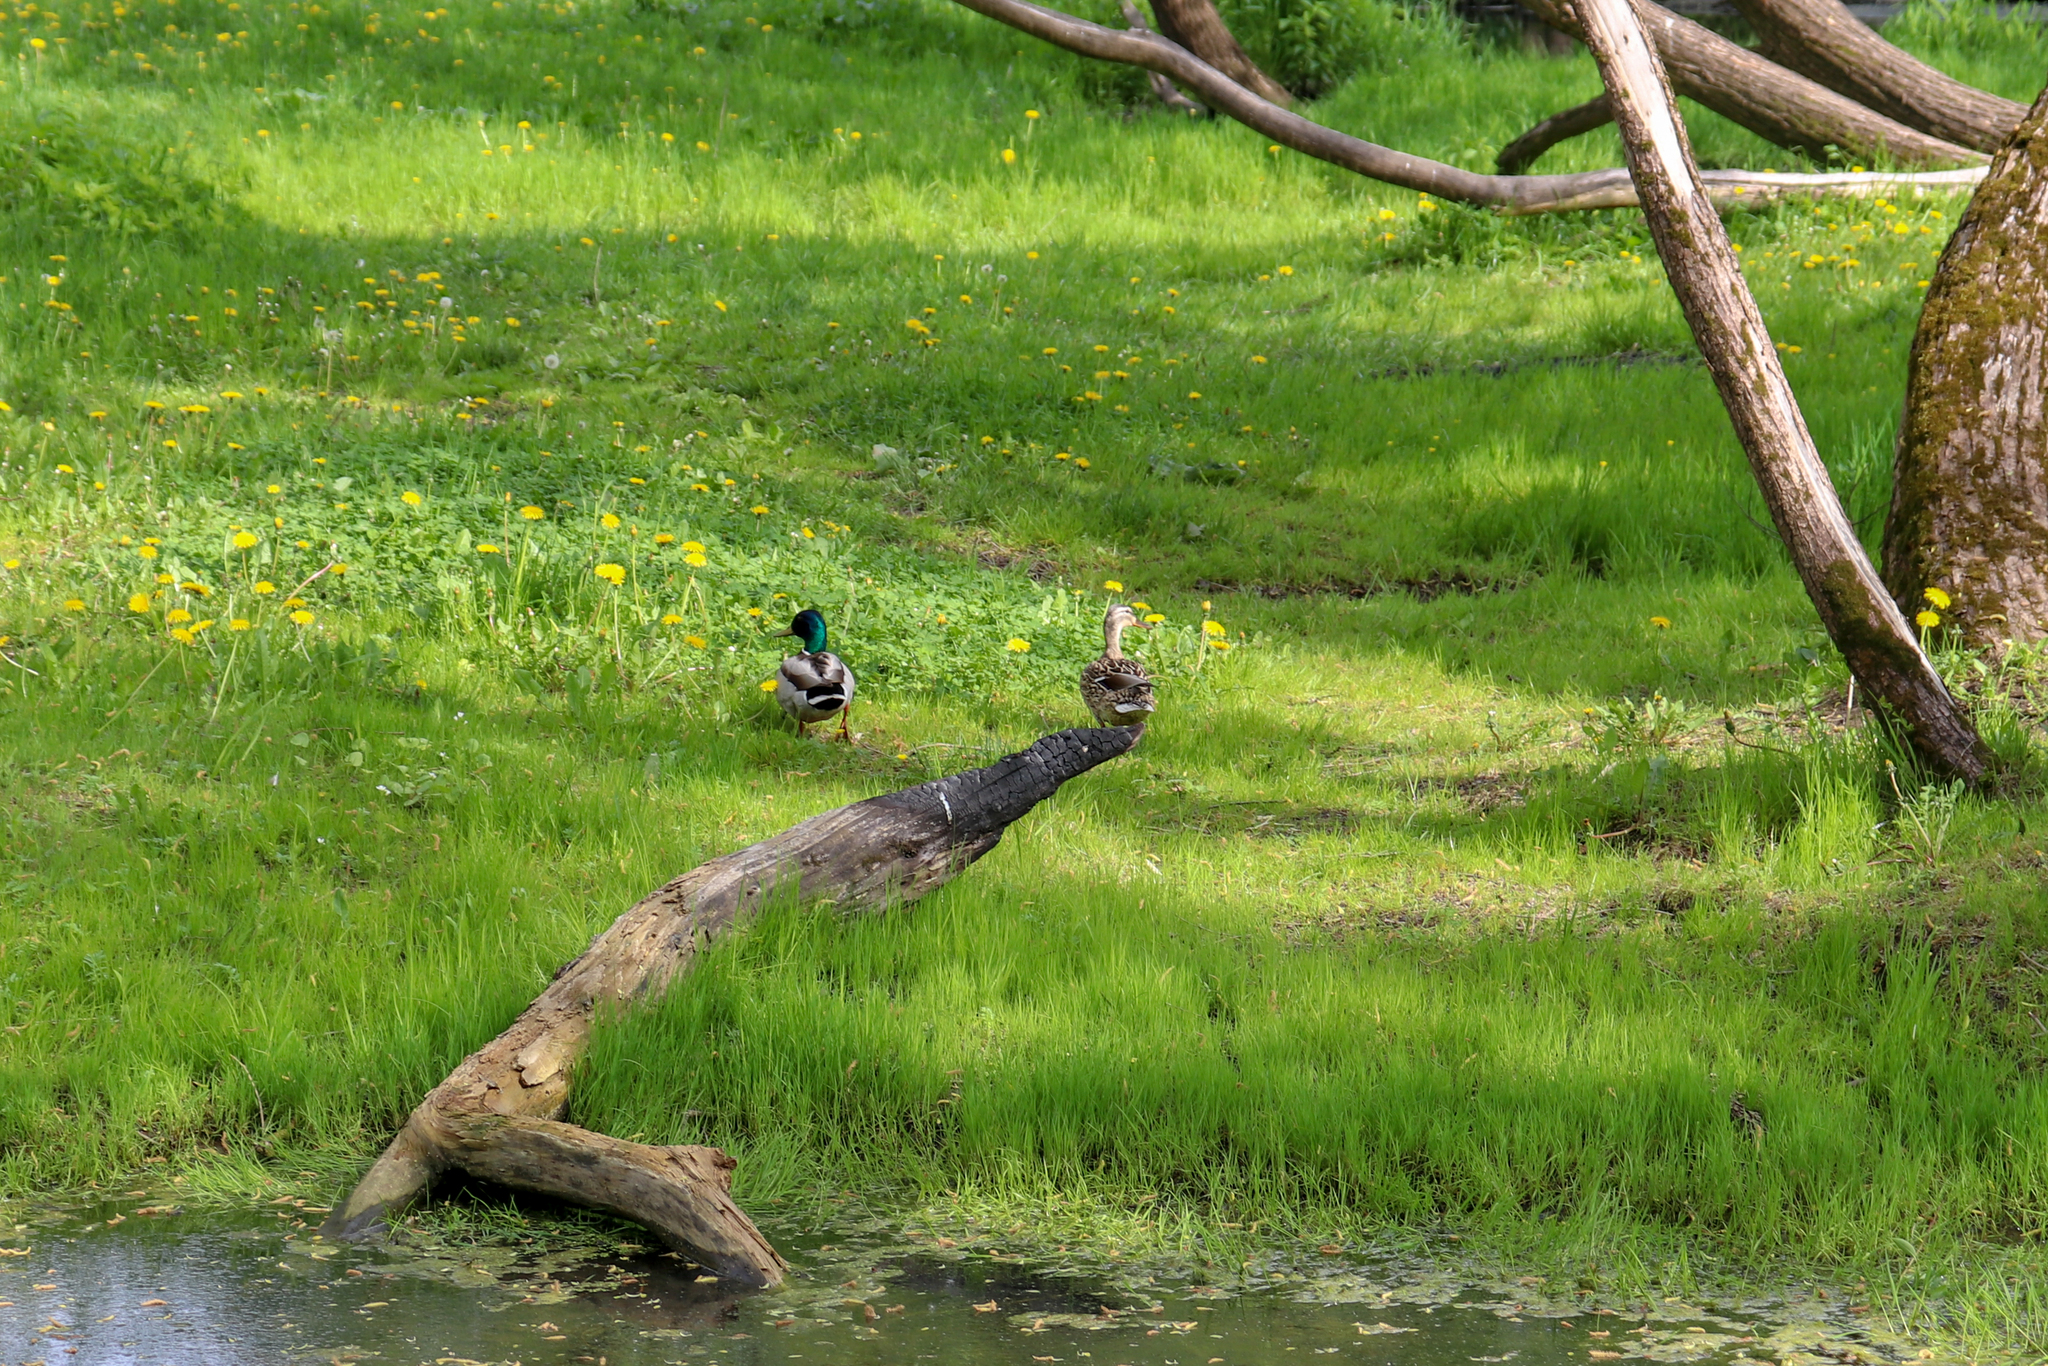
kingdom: Animalia
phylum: Chordata
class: Aves
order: Anseriformes
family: Anatidae
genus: Anas
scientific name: Anas platyrhynchos
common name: Mallard
